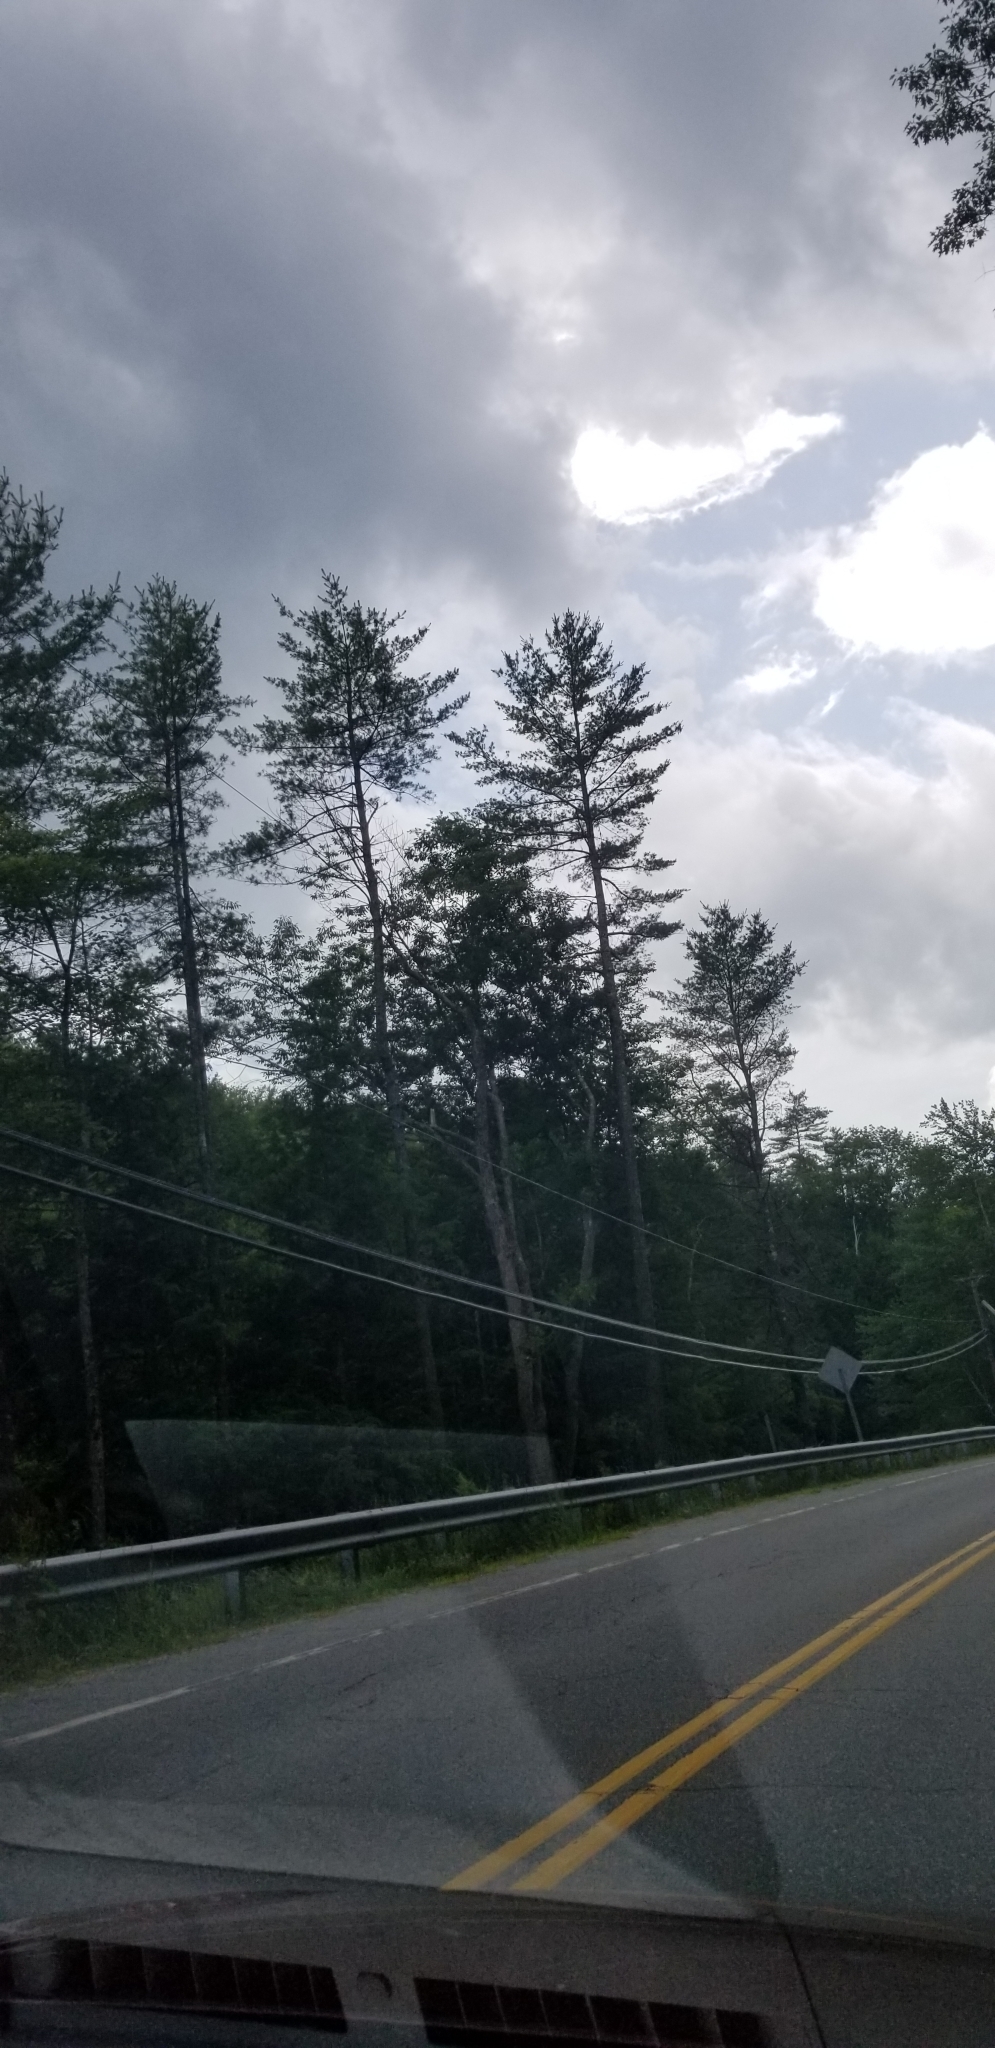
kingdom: Plantae
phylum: Tracheophyta
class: Pinopsida
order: Pinales
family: Pinaceae
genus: Pinus
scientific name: Pinus strobus
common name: Weymouth pine
